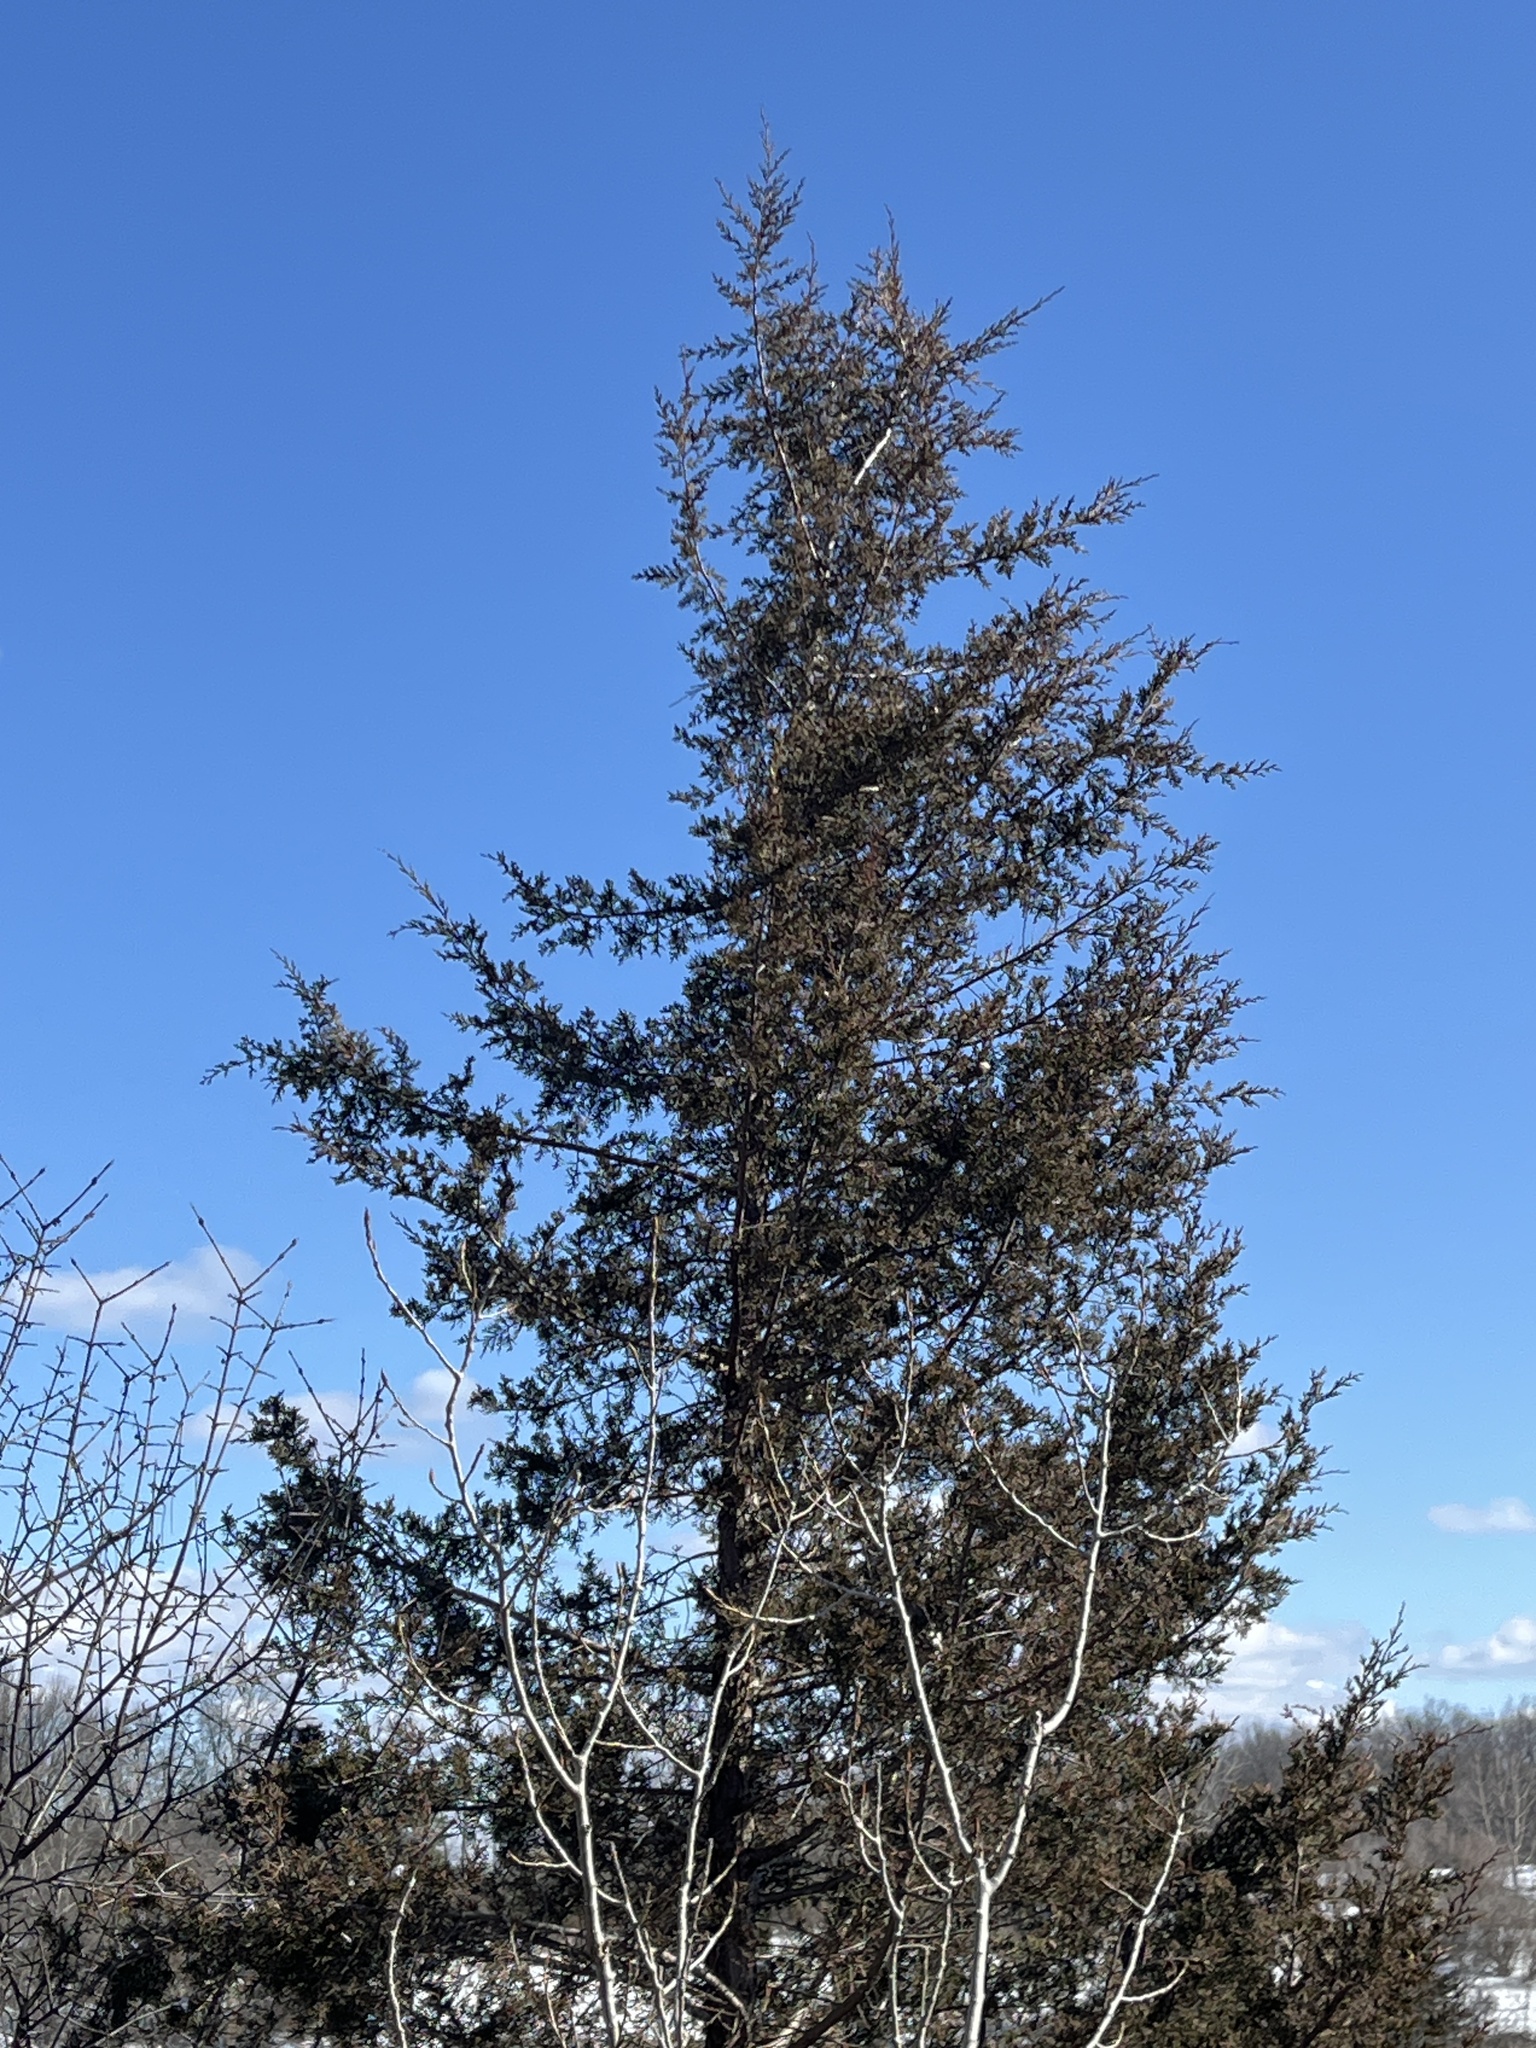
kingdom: Plantae
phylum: Tracheophyta
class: Pinopsida
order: Pinales
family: Cupressaceae
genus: Juniperus
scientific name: Juniperus virginiana
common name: Red juniper
